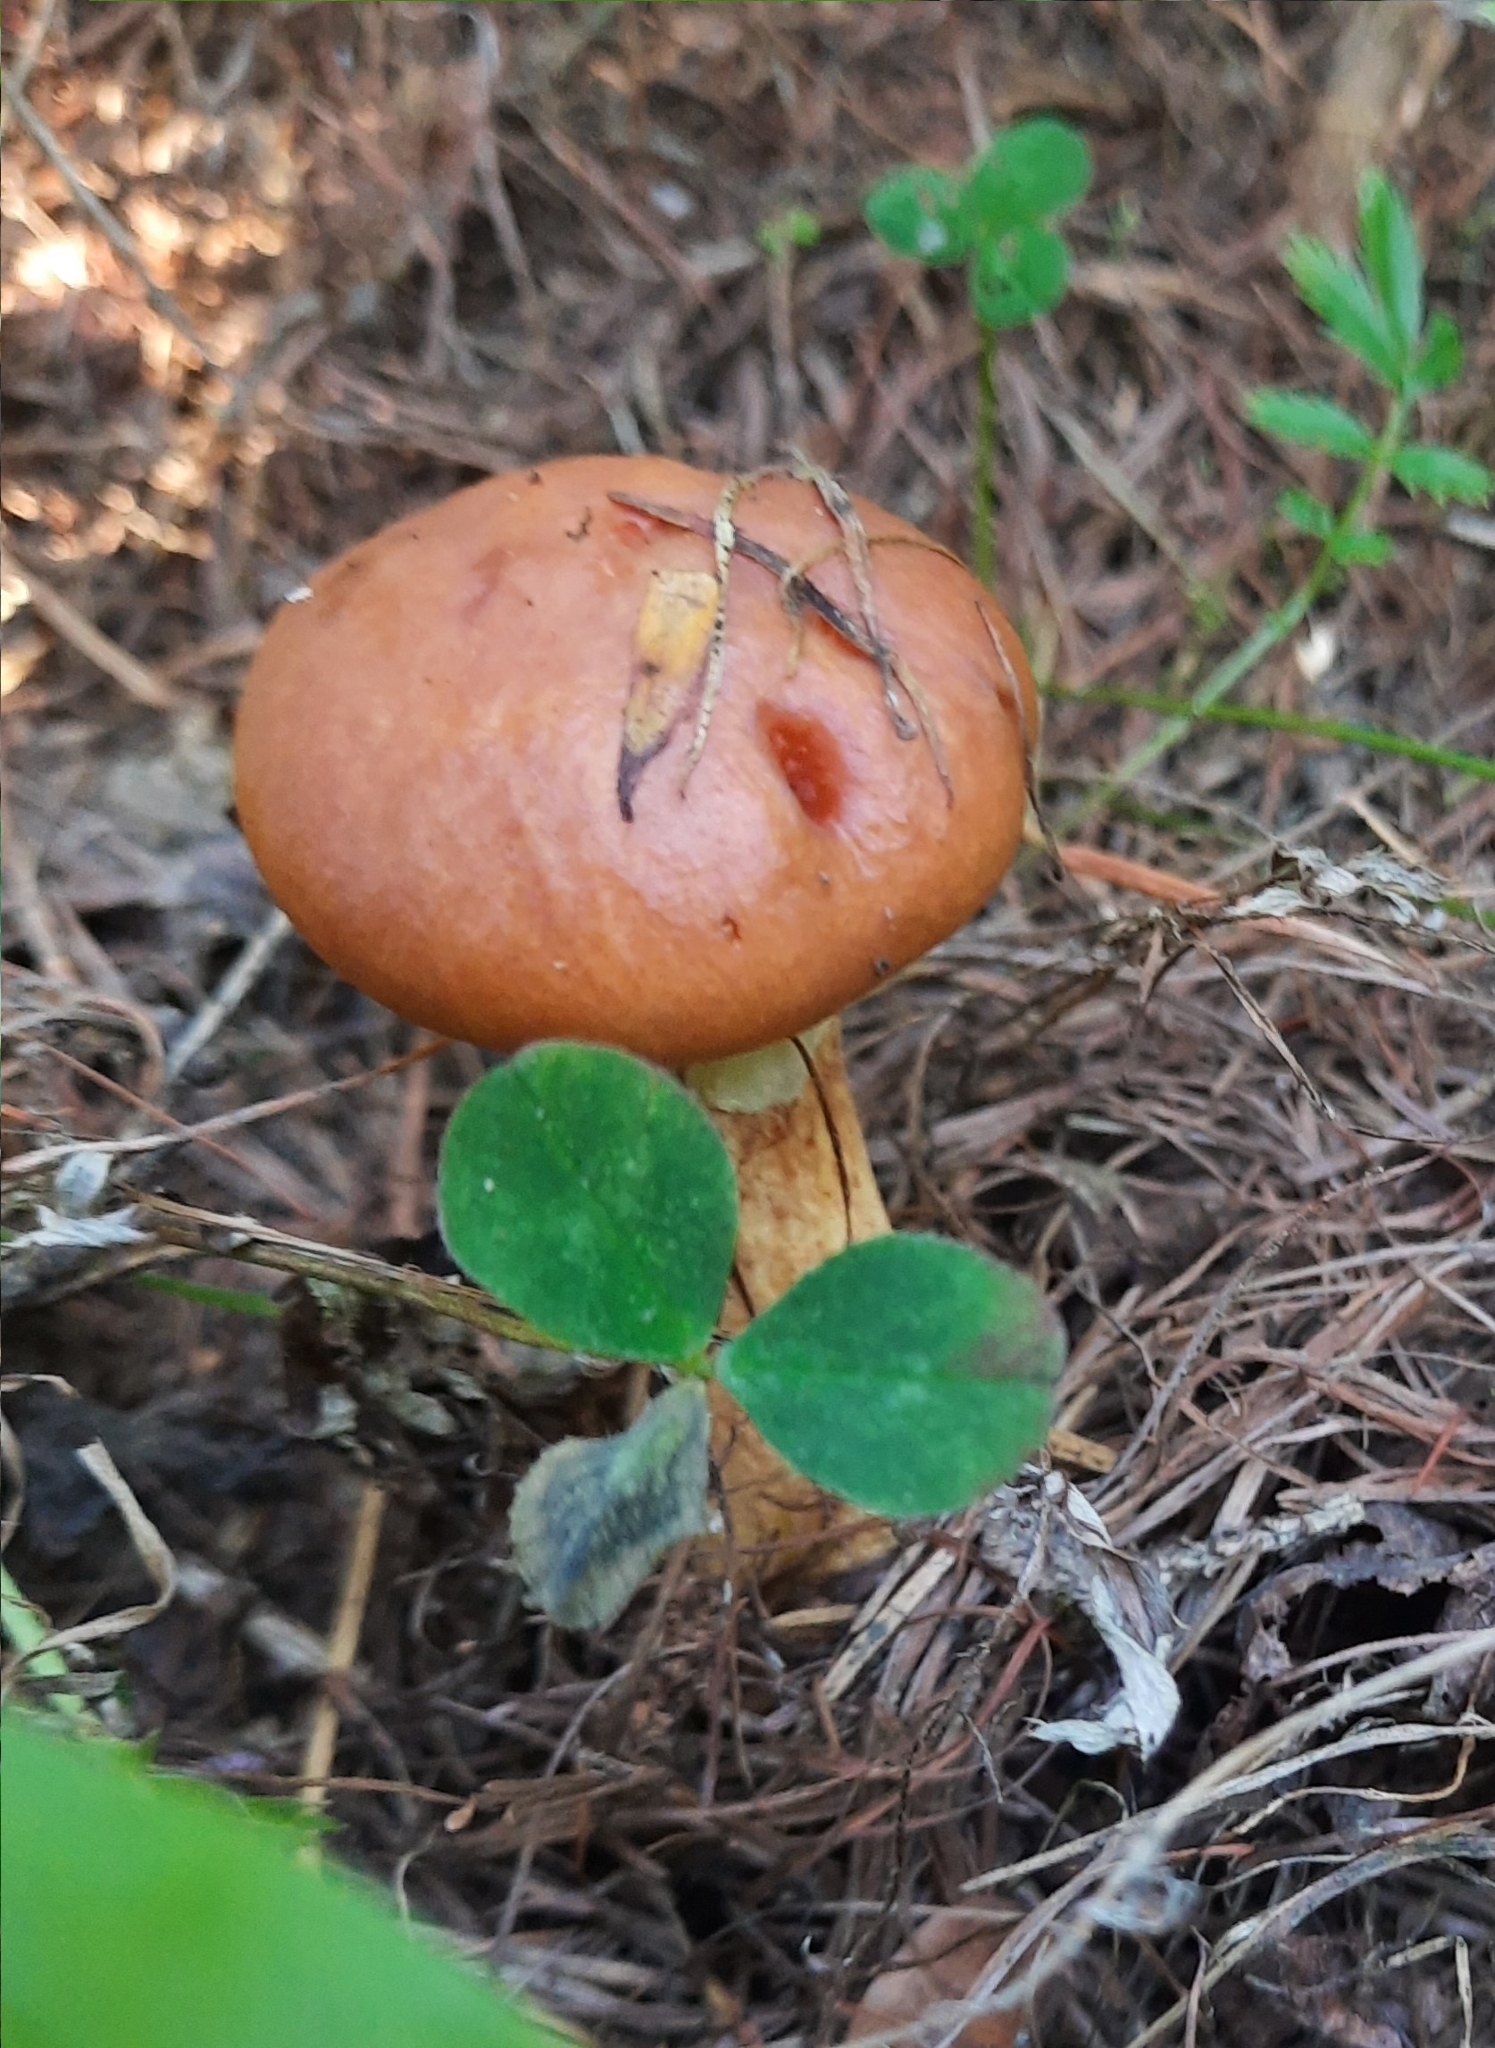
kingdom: Fungi
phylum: Basidiomycota
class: Agaricomycetes
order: Boletales
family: Suillaceae
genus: Suillus
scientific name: Suillus grevillei
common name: Larch bolete
